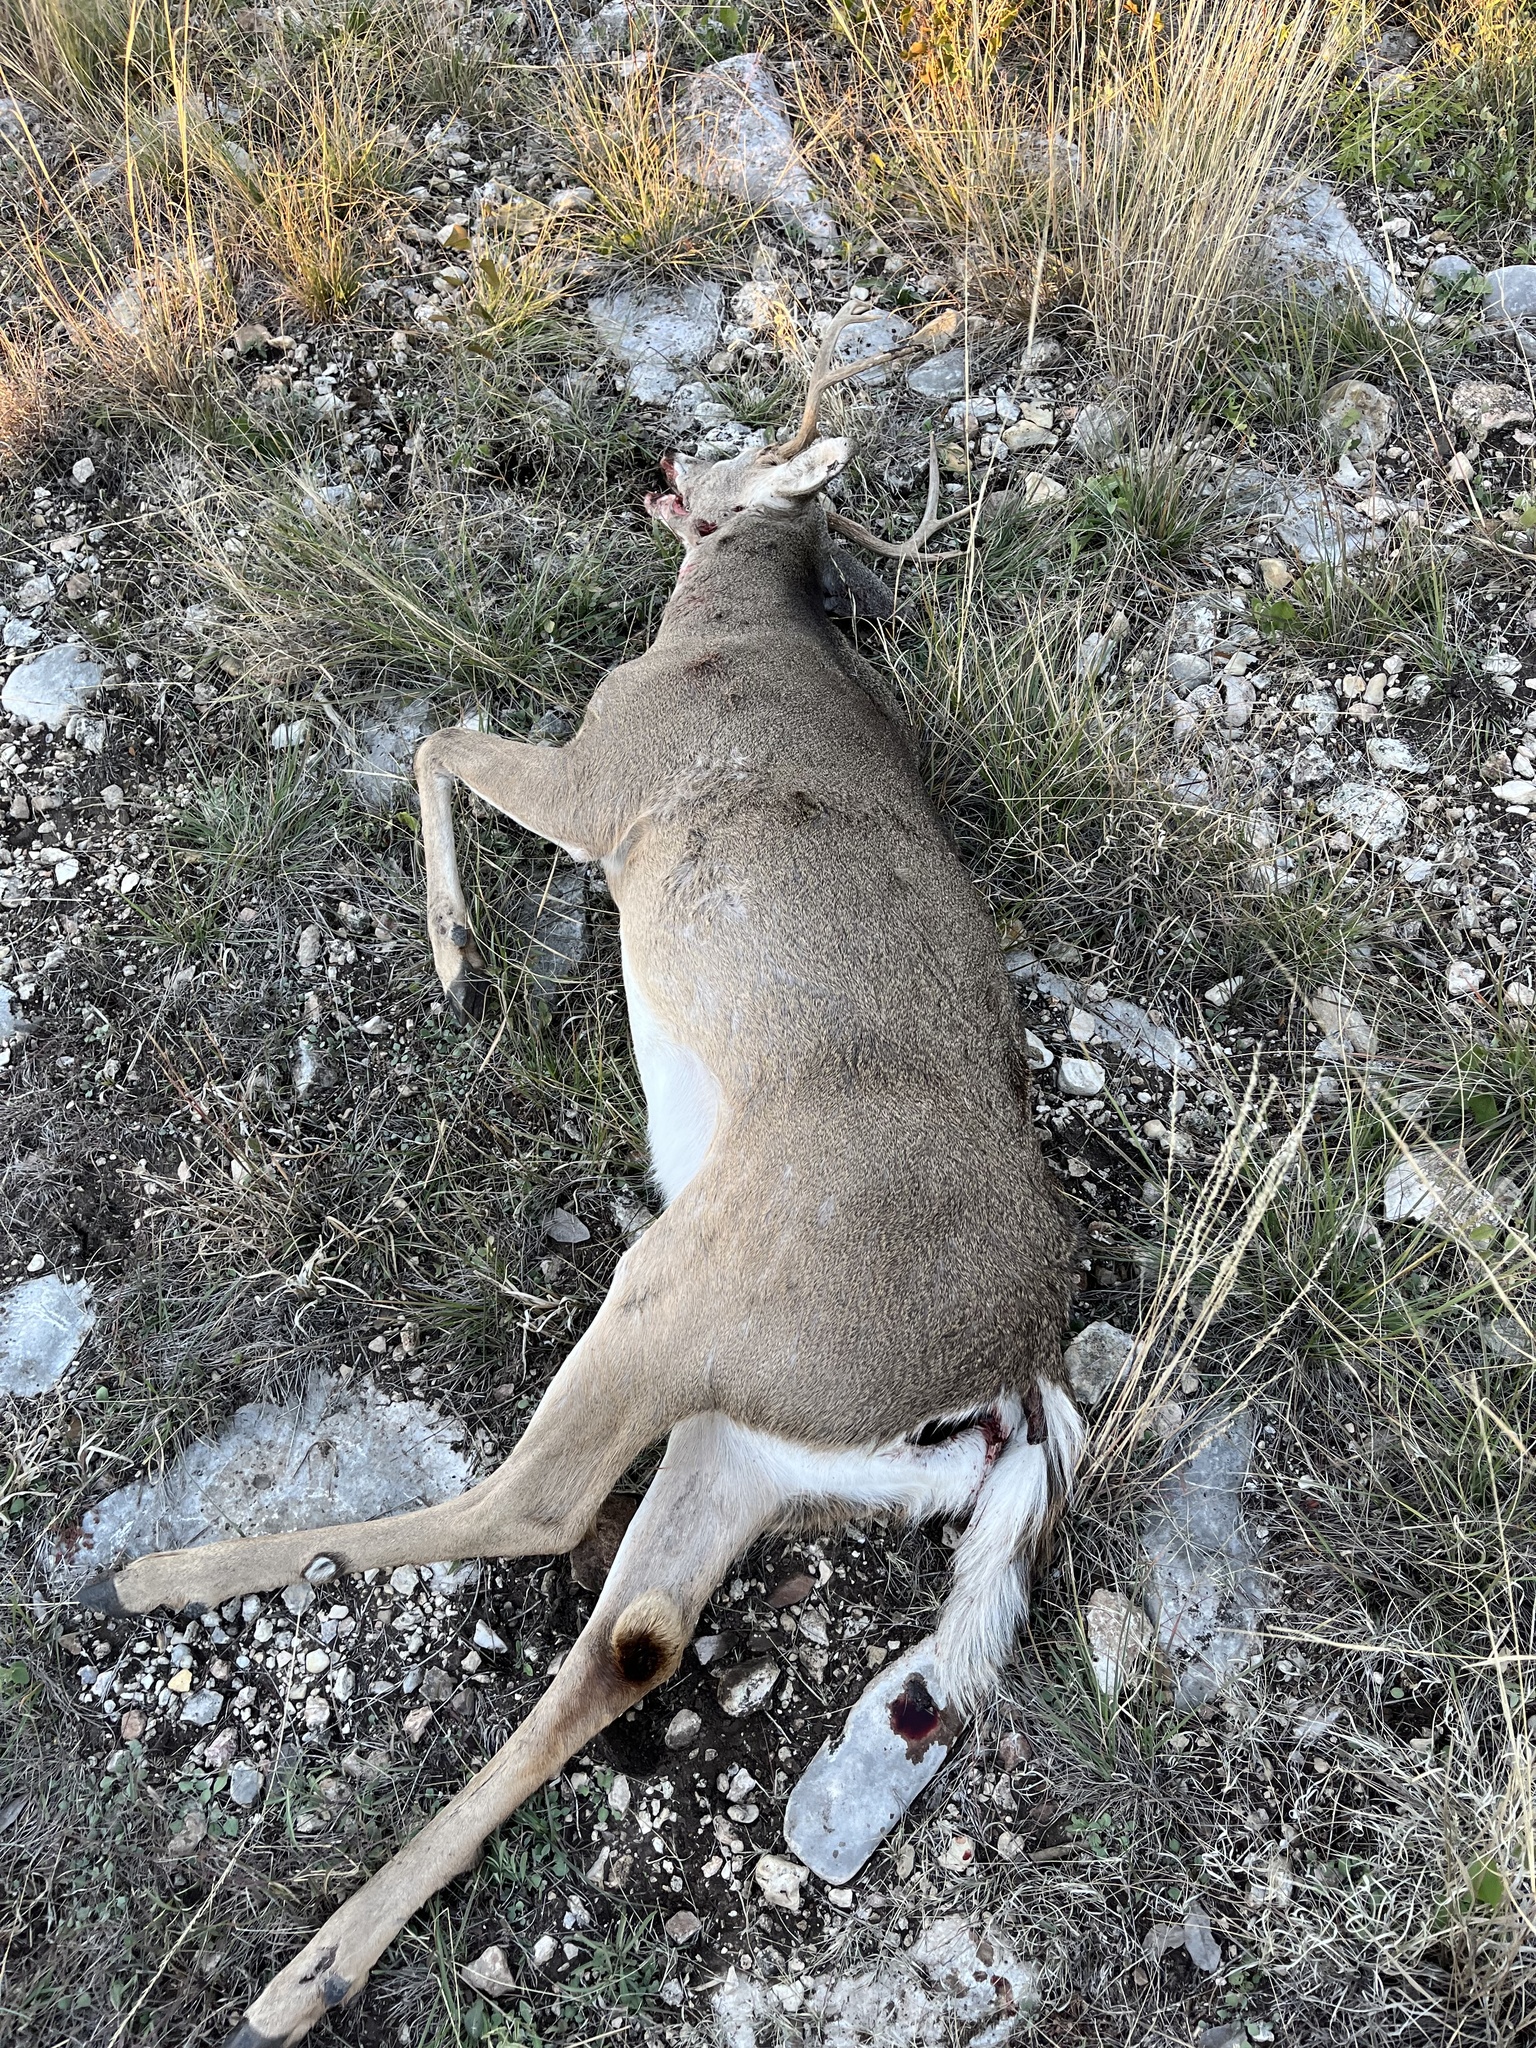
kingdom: Animalia
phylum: Chordata
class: Mammalia
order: Artiodactyla
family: Cervidae
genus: Odocoileus
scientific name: Odocoileus virginianus
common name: White-tailed deer
